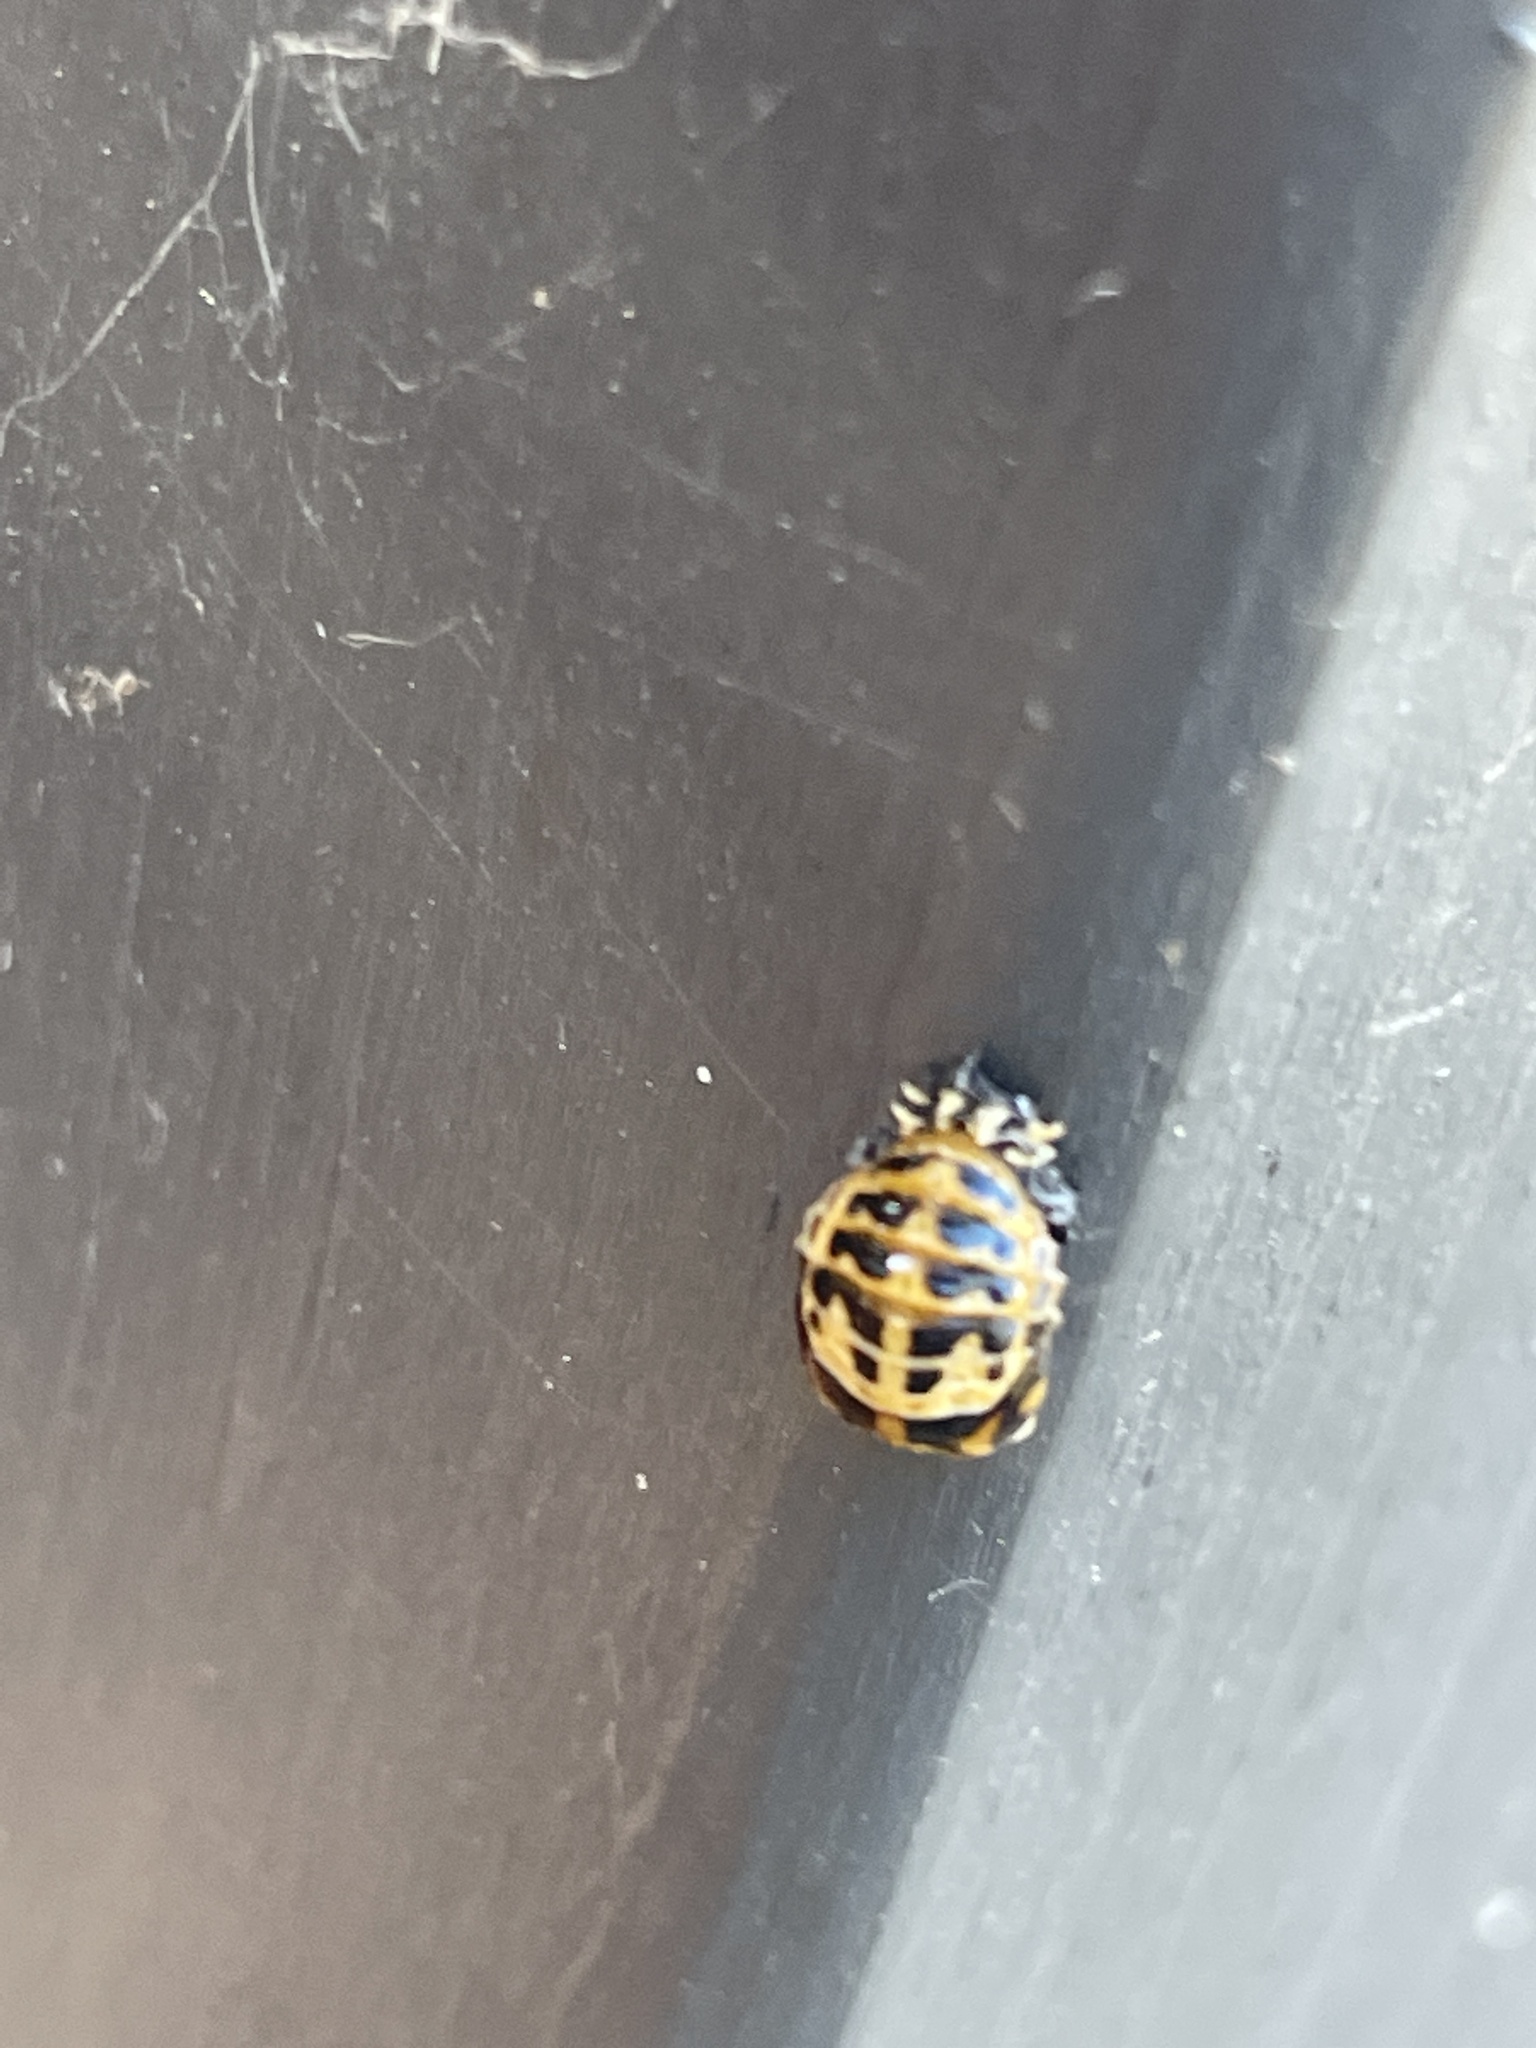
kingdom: Animalia
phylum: Arthropoda
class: Insecta
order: Coleoptera
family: Coccinellidae
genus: Harmonia
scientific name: Harmonia conformis
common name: Common spotted ladybird beetle
